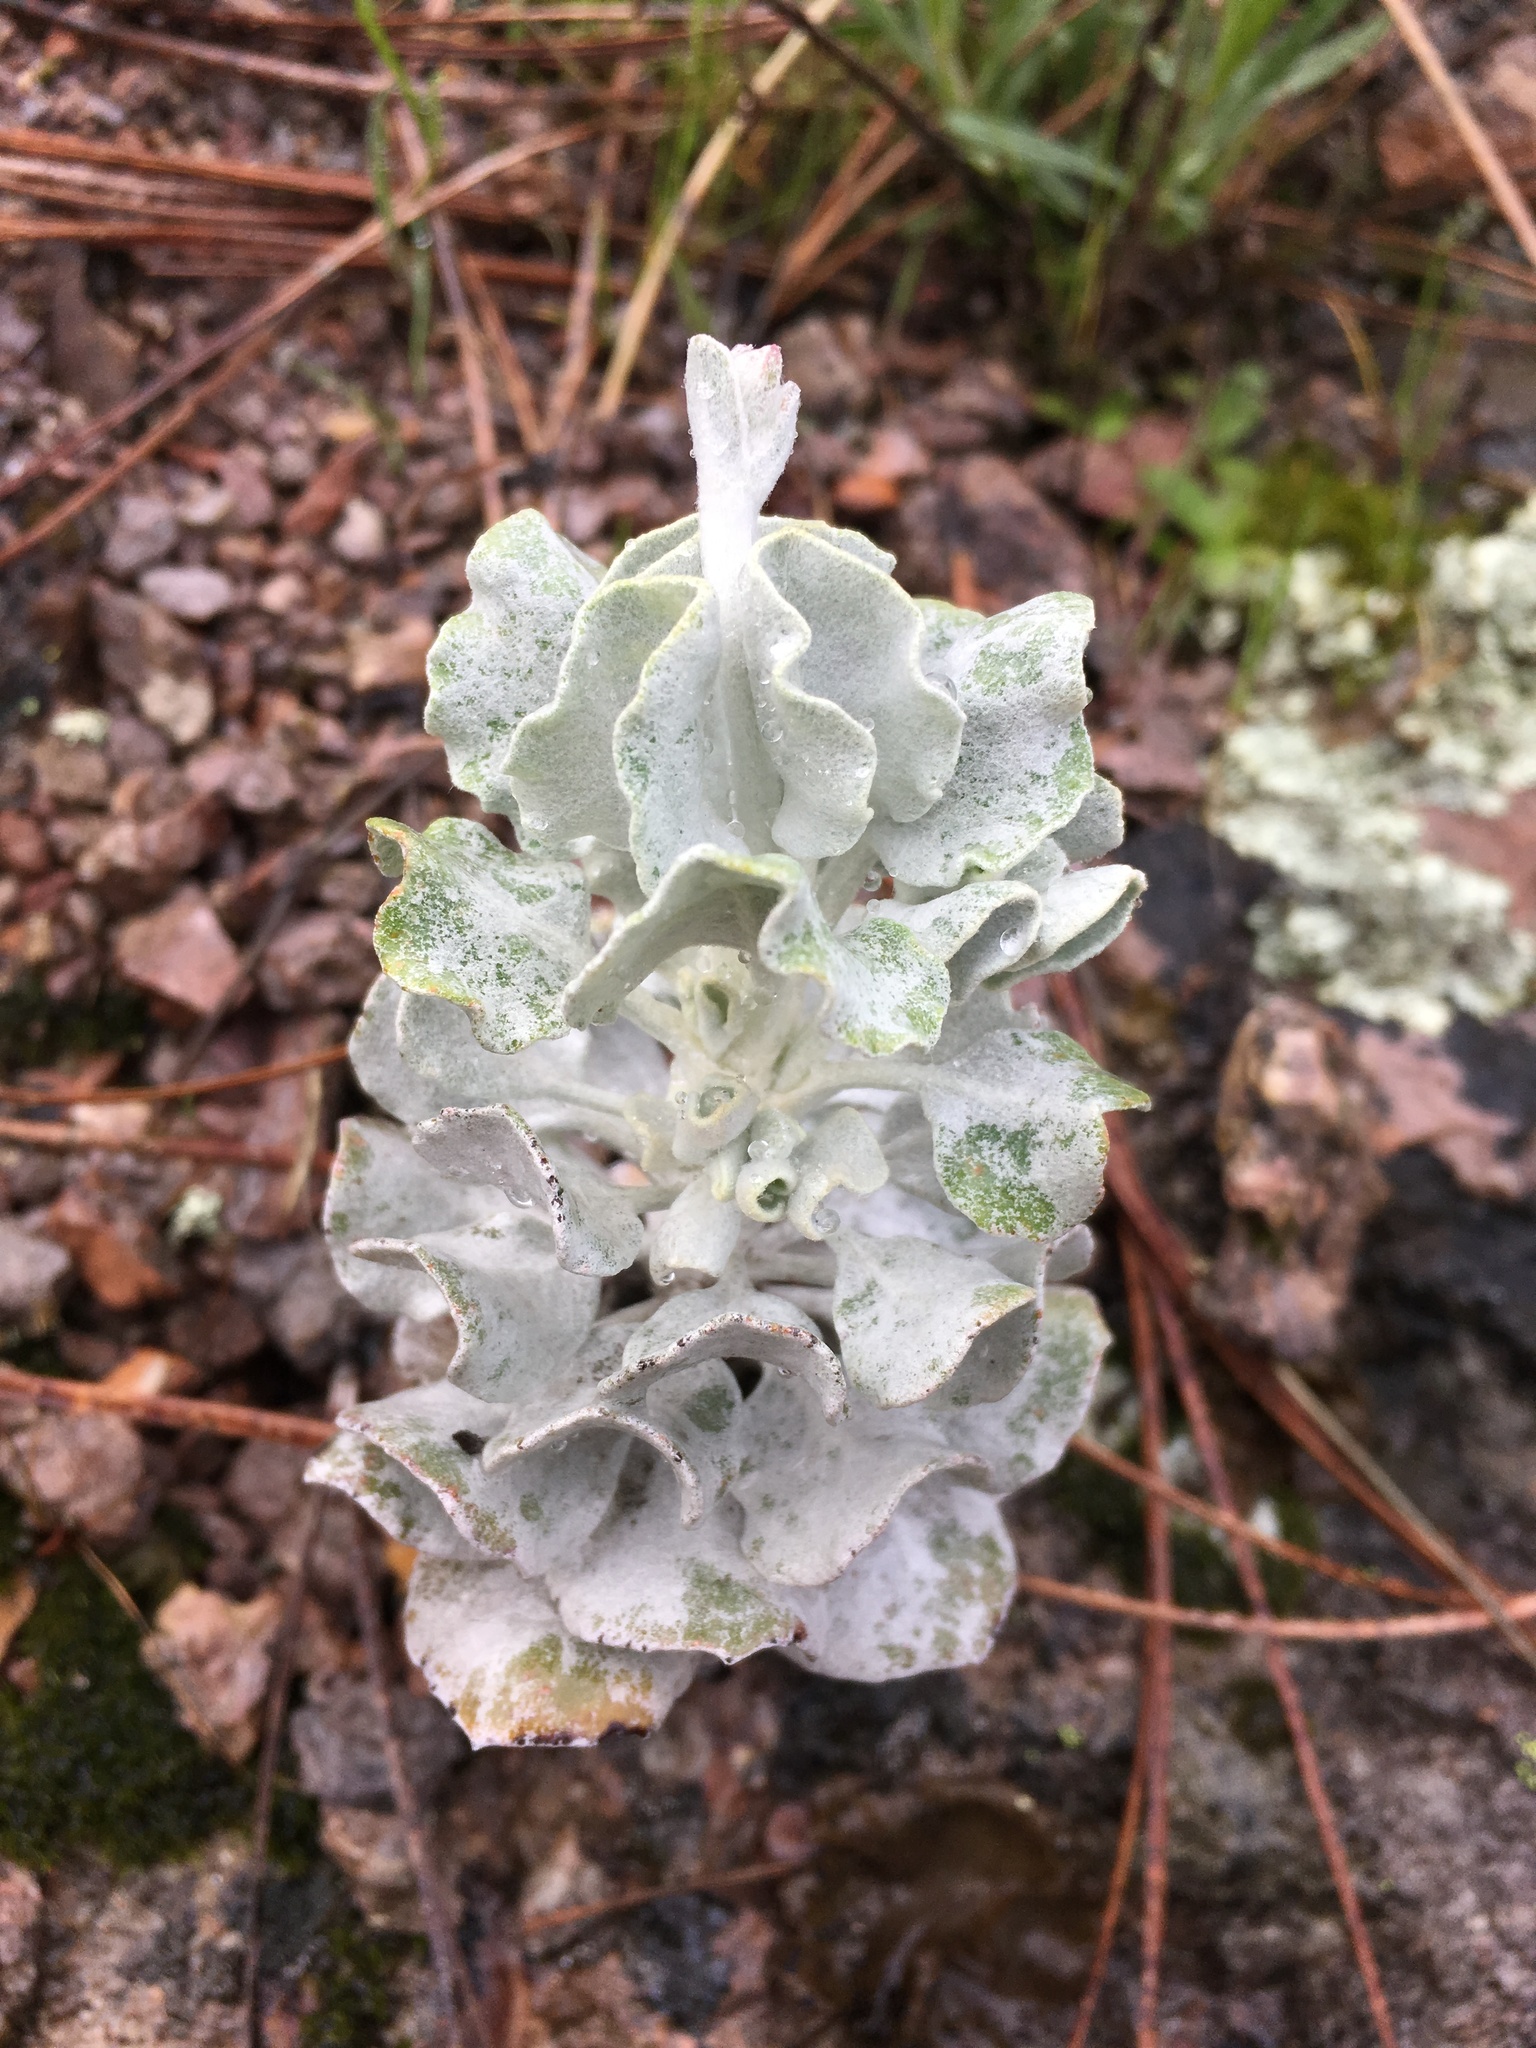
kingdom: Plantae
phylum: Tracheophyta
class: Magnoliopsida
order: Caryophyllales
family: Polygonaceae
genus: Eriogonum
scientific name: Eriogonum saxatile
